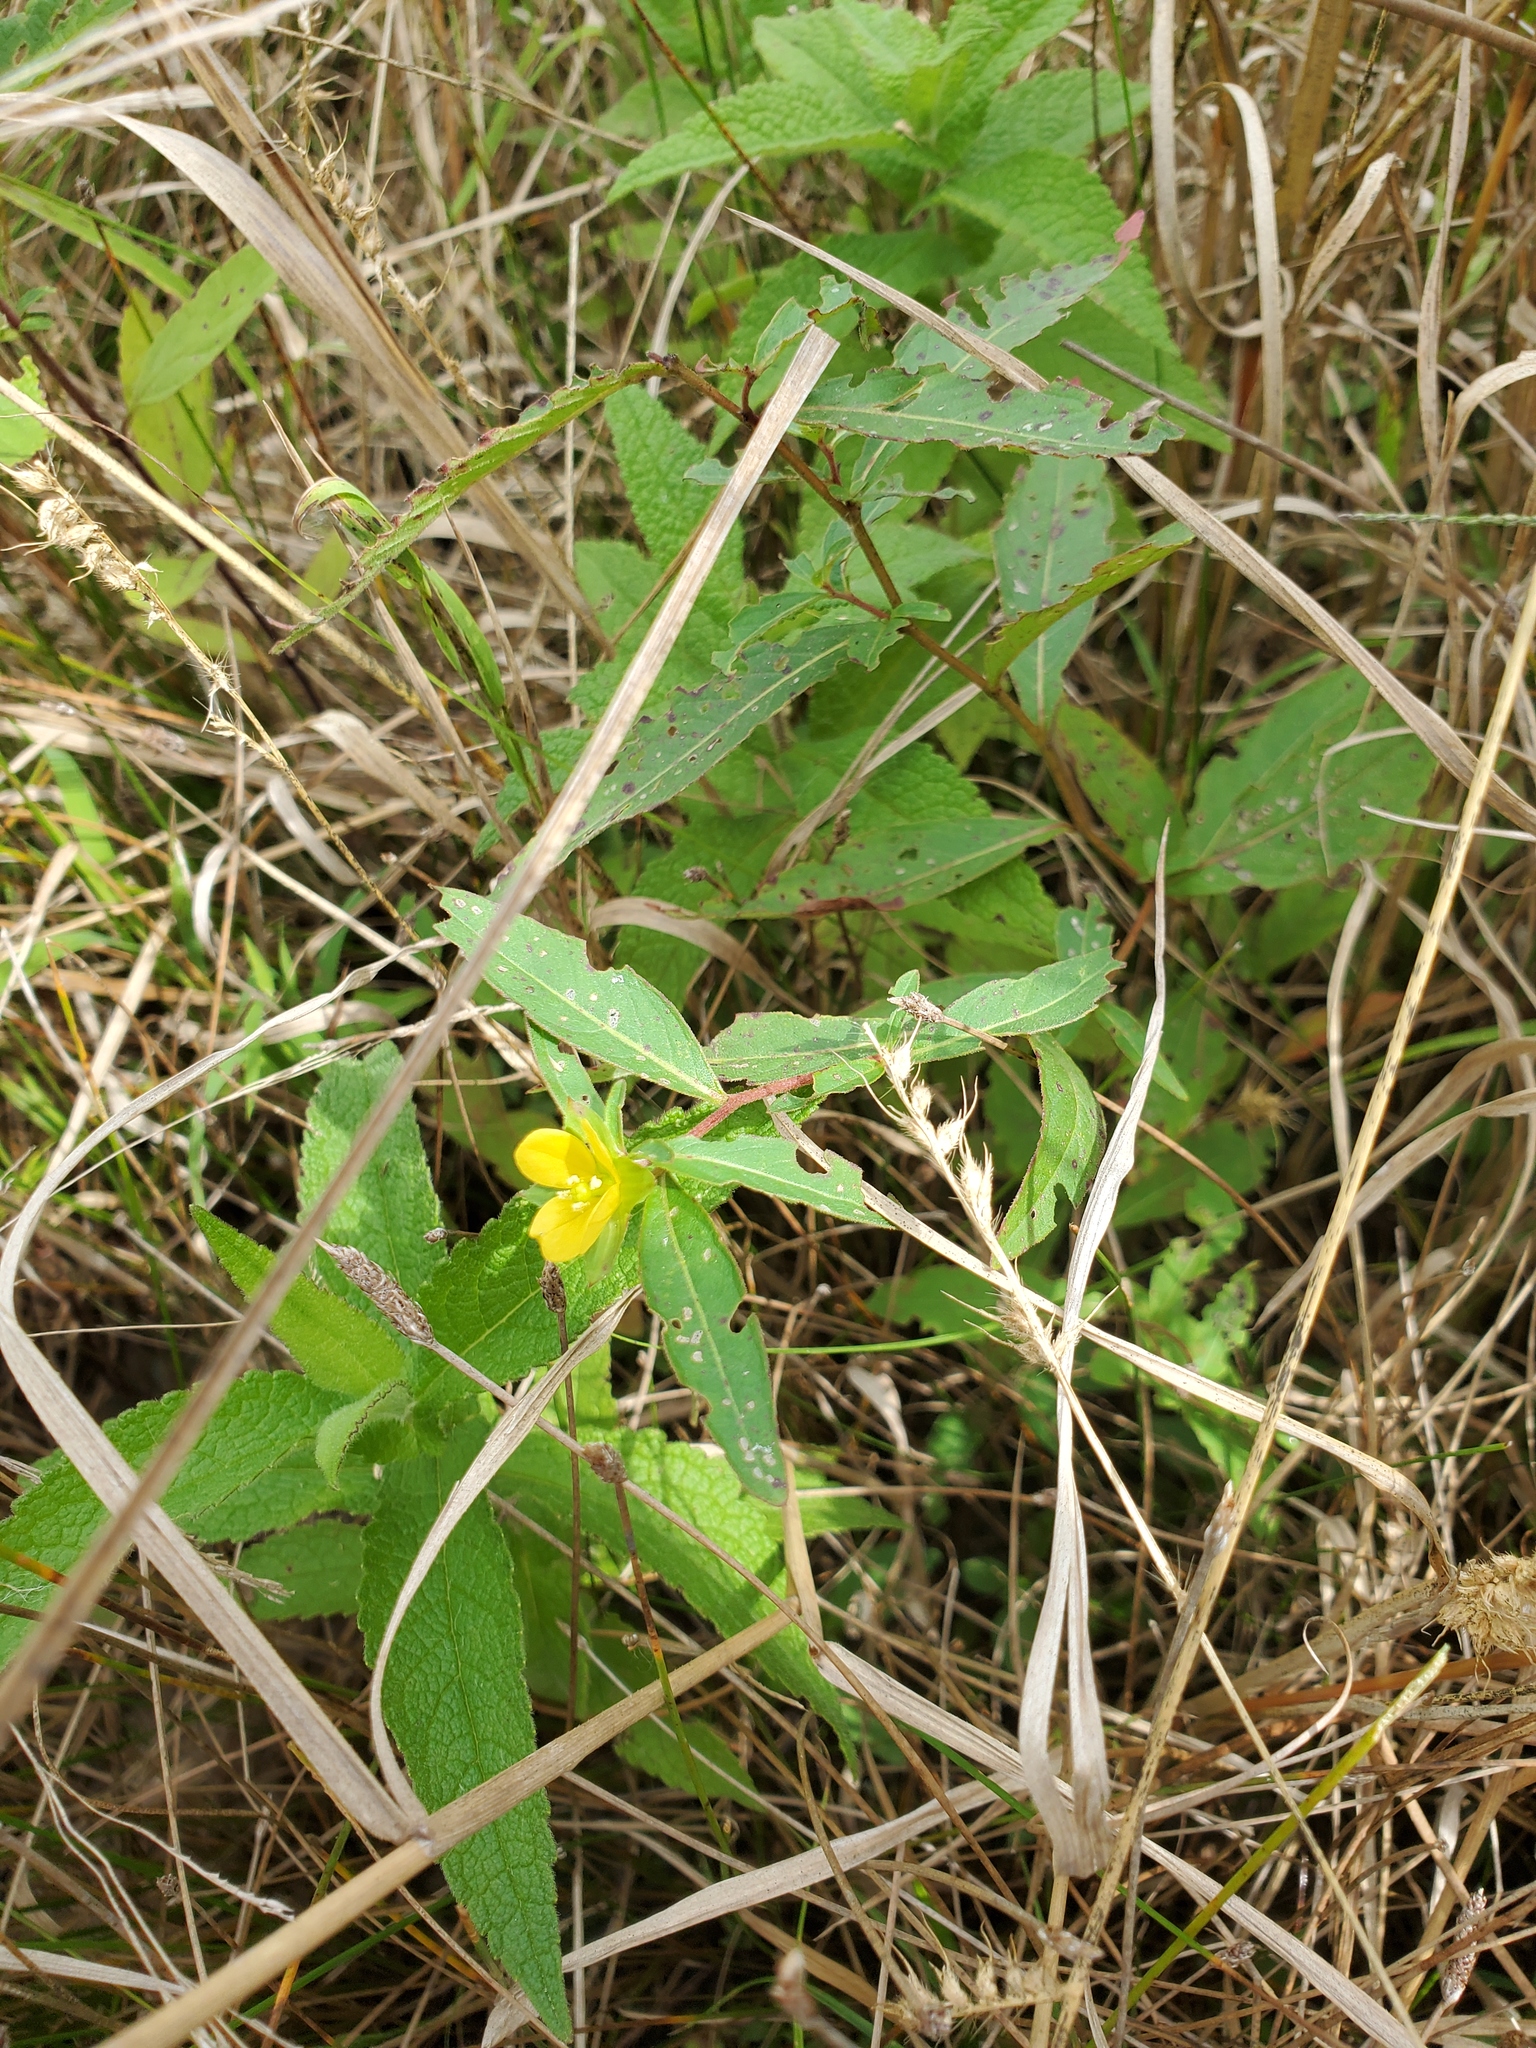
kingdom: Plantae
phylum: Tracheophyta
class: Magnoliopsida
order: Myrtales
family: Onagraceae
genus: Ludwigia
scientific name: Ludwigia alternifolia
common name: Rattlebox
